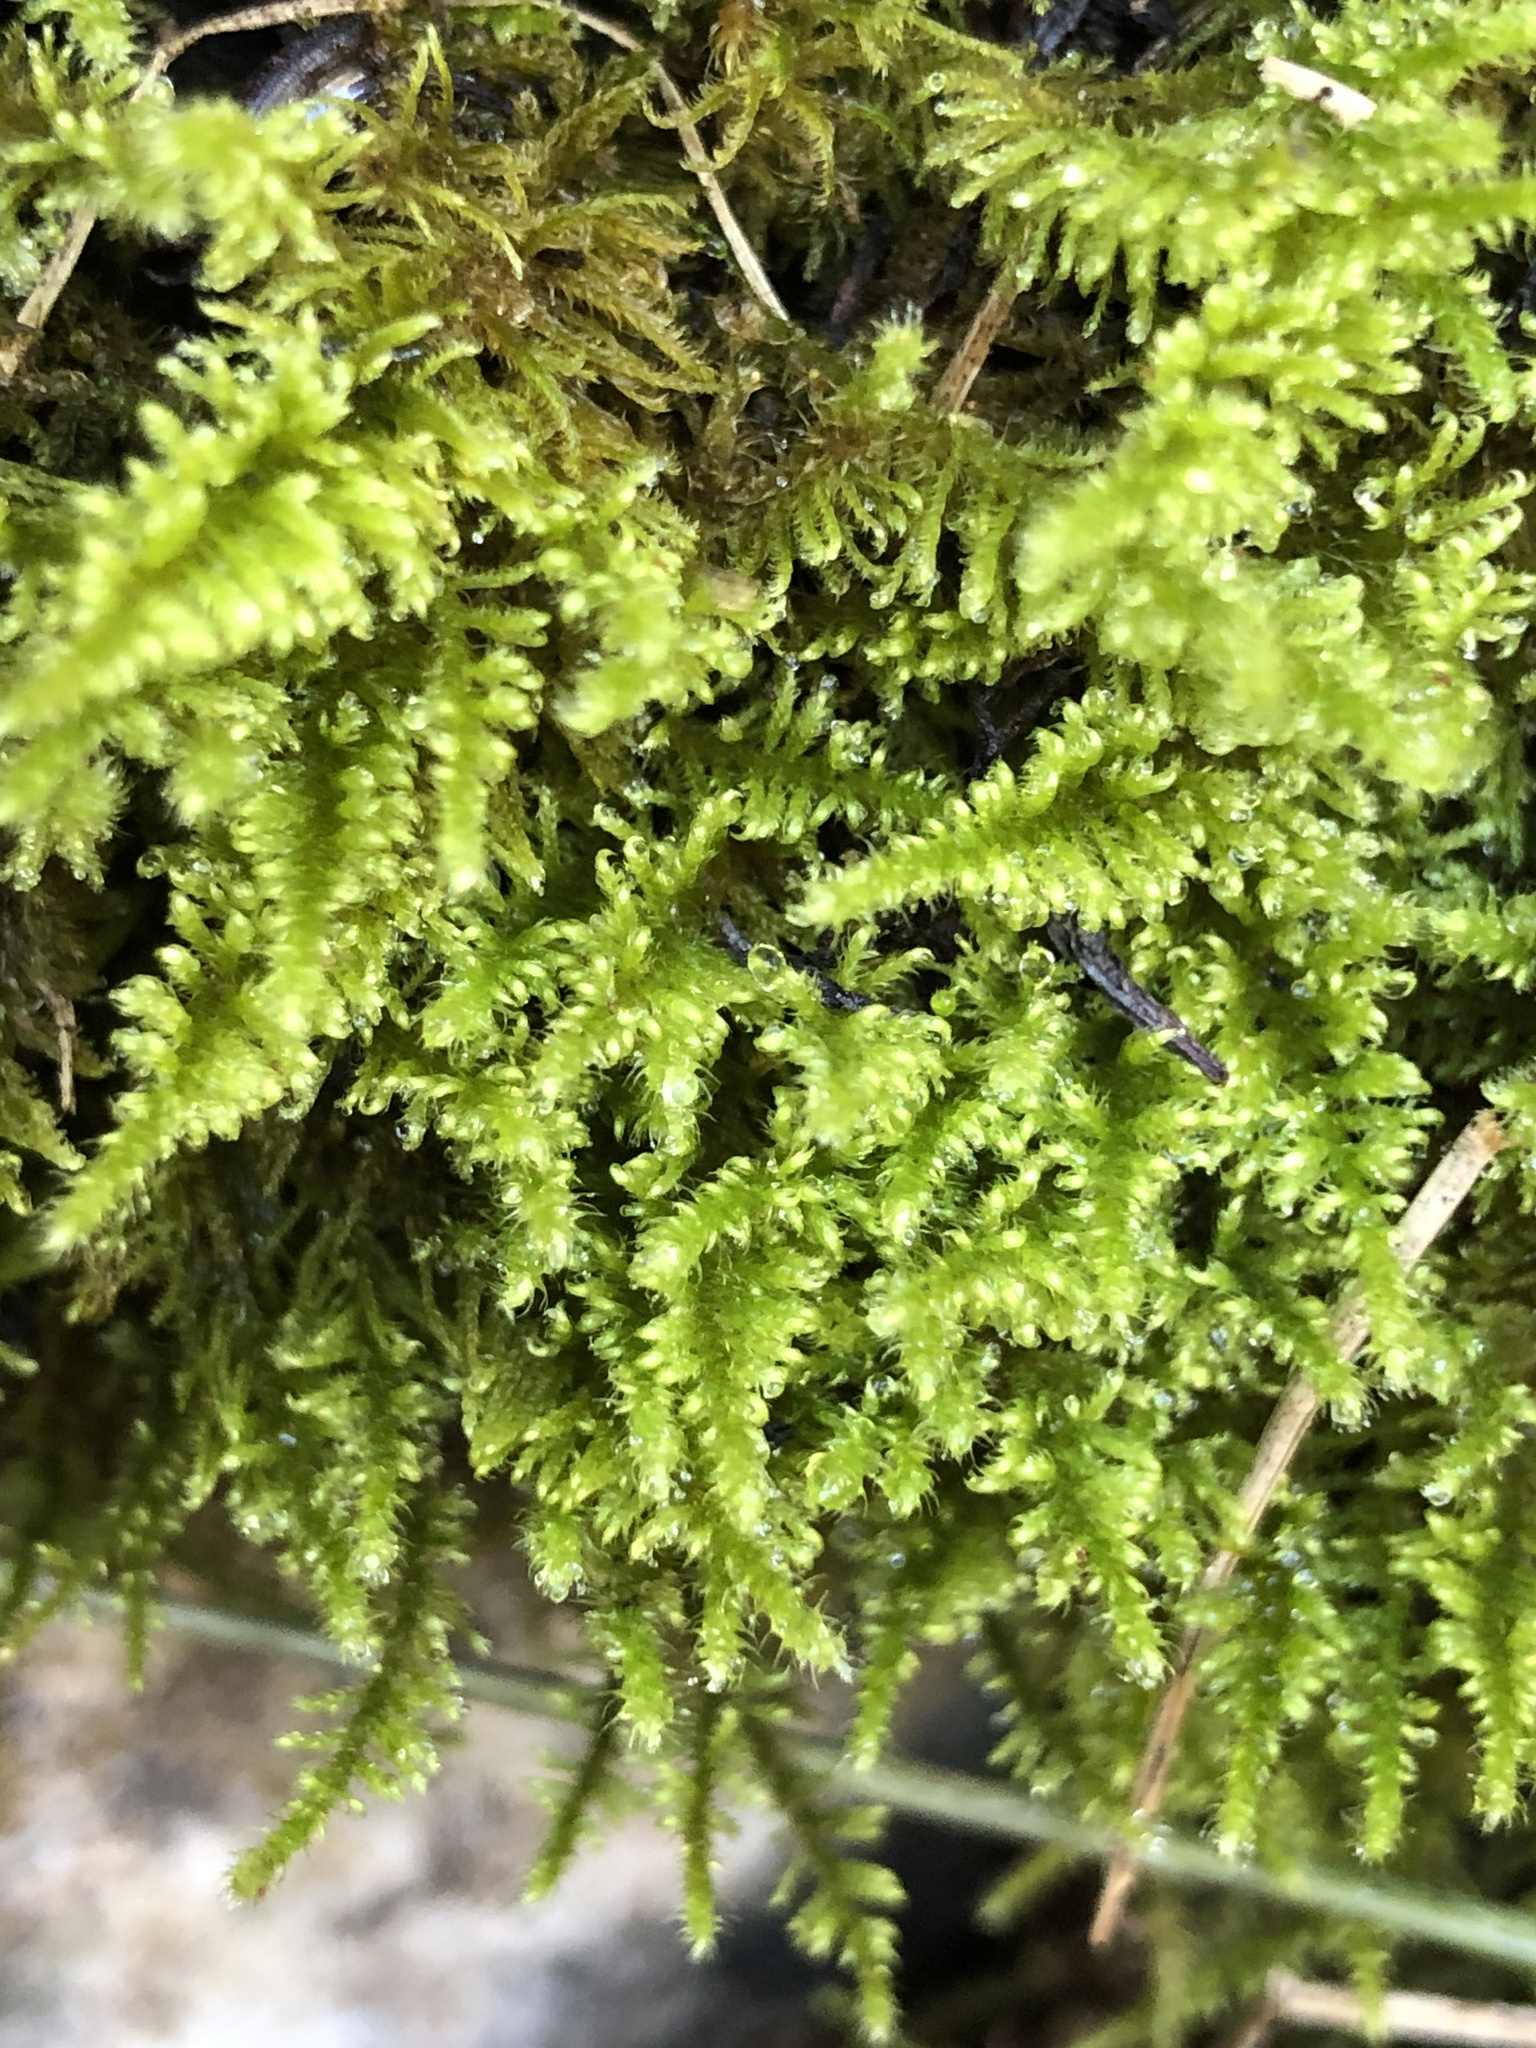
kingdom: Plantae
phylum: Bryophyta
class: Bryopsida
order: Hypnales
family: Myuriaceae
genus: Ctenidium
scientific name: Ctenidium molluscum
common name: Chalk comb-moss
